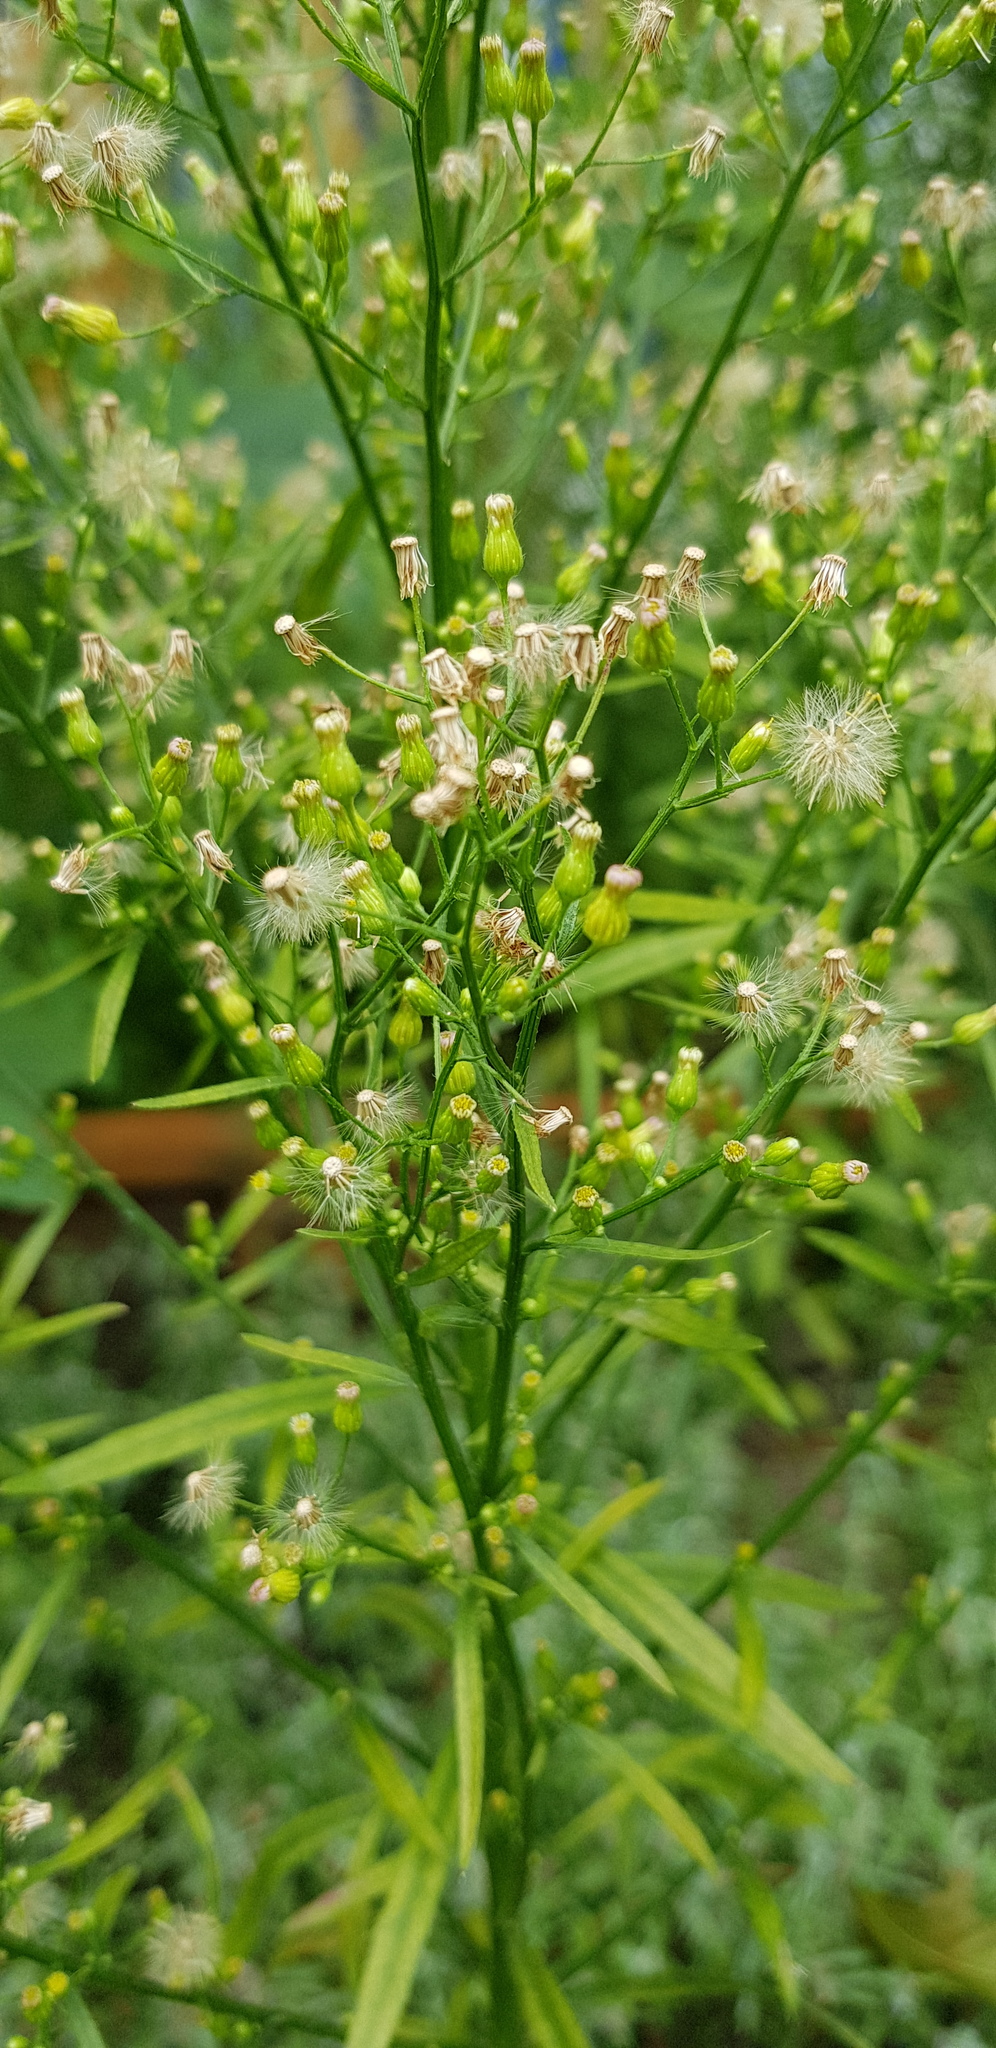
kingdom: Plantae
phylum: Tracheophyta
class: Magnoliopsida
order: Asterales
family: Asteraceae
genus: Erigeron
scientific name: Erigeron canadensis
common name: Canadian fleabane
